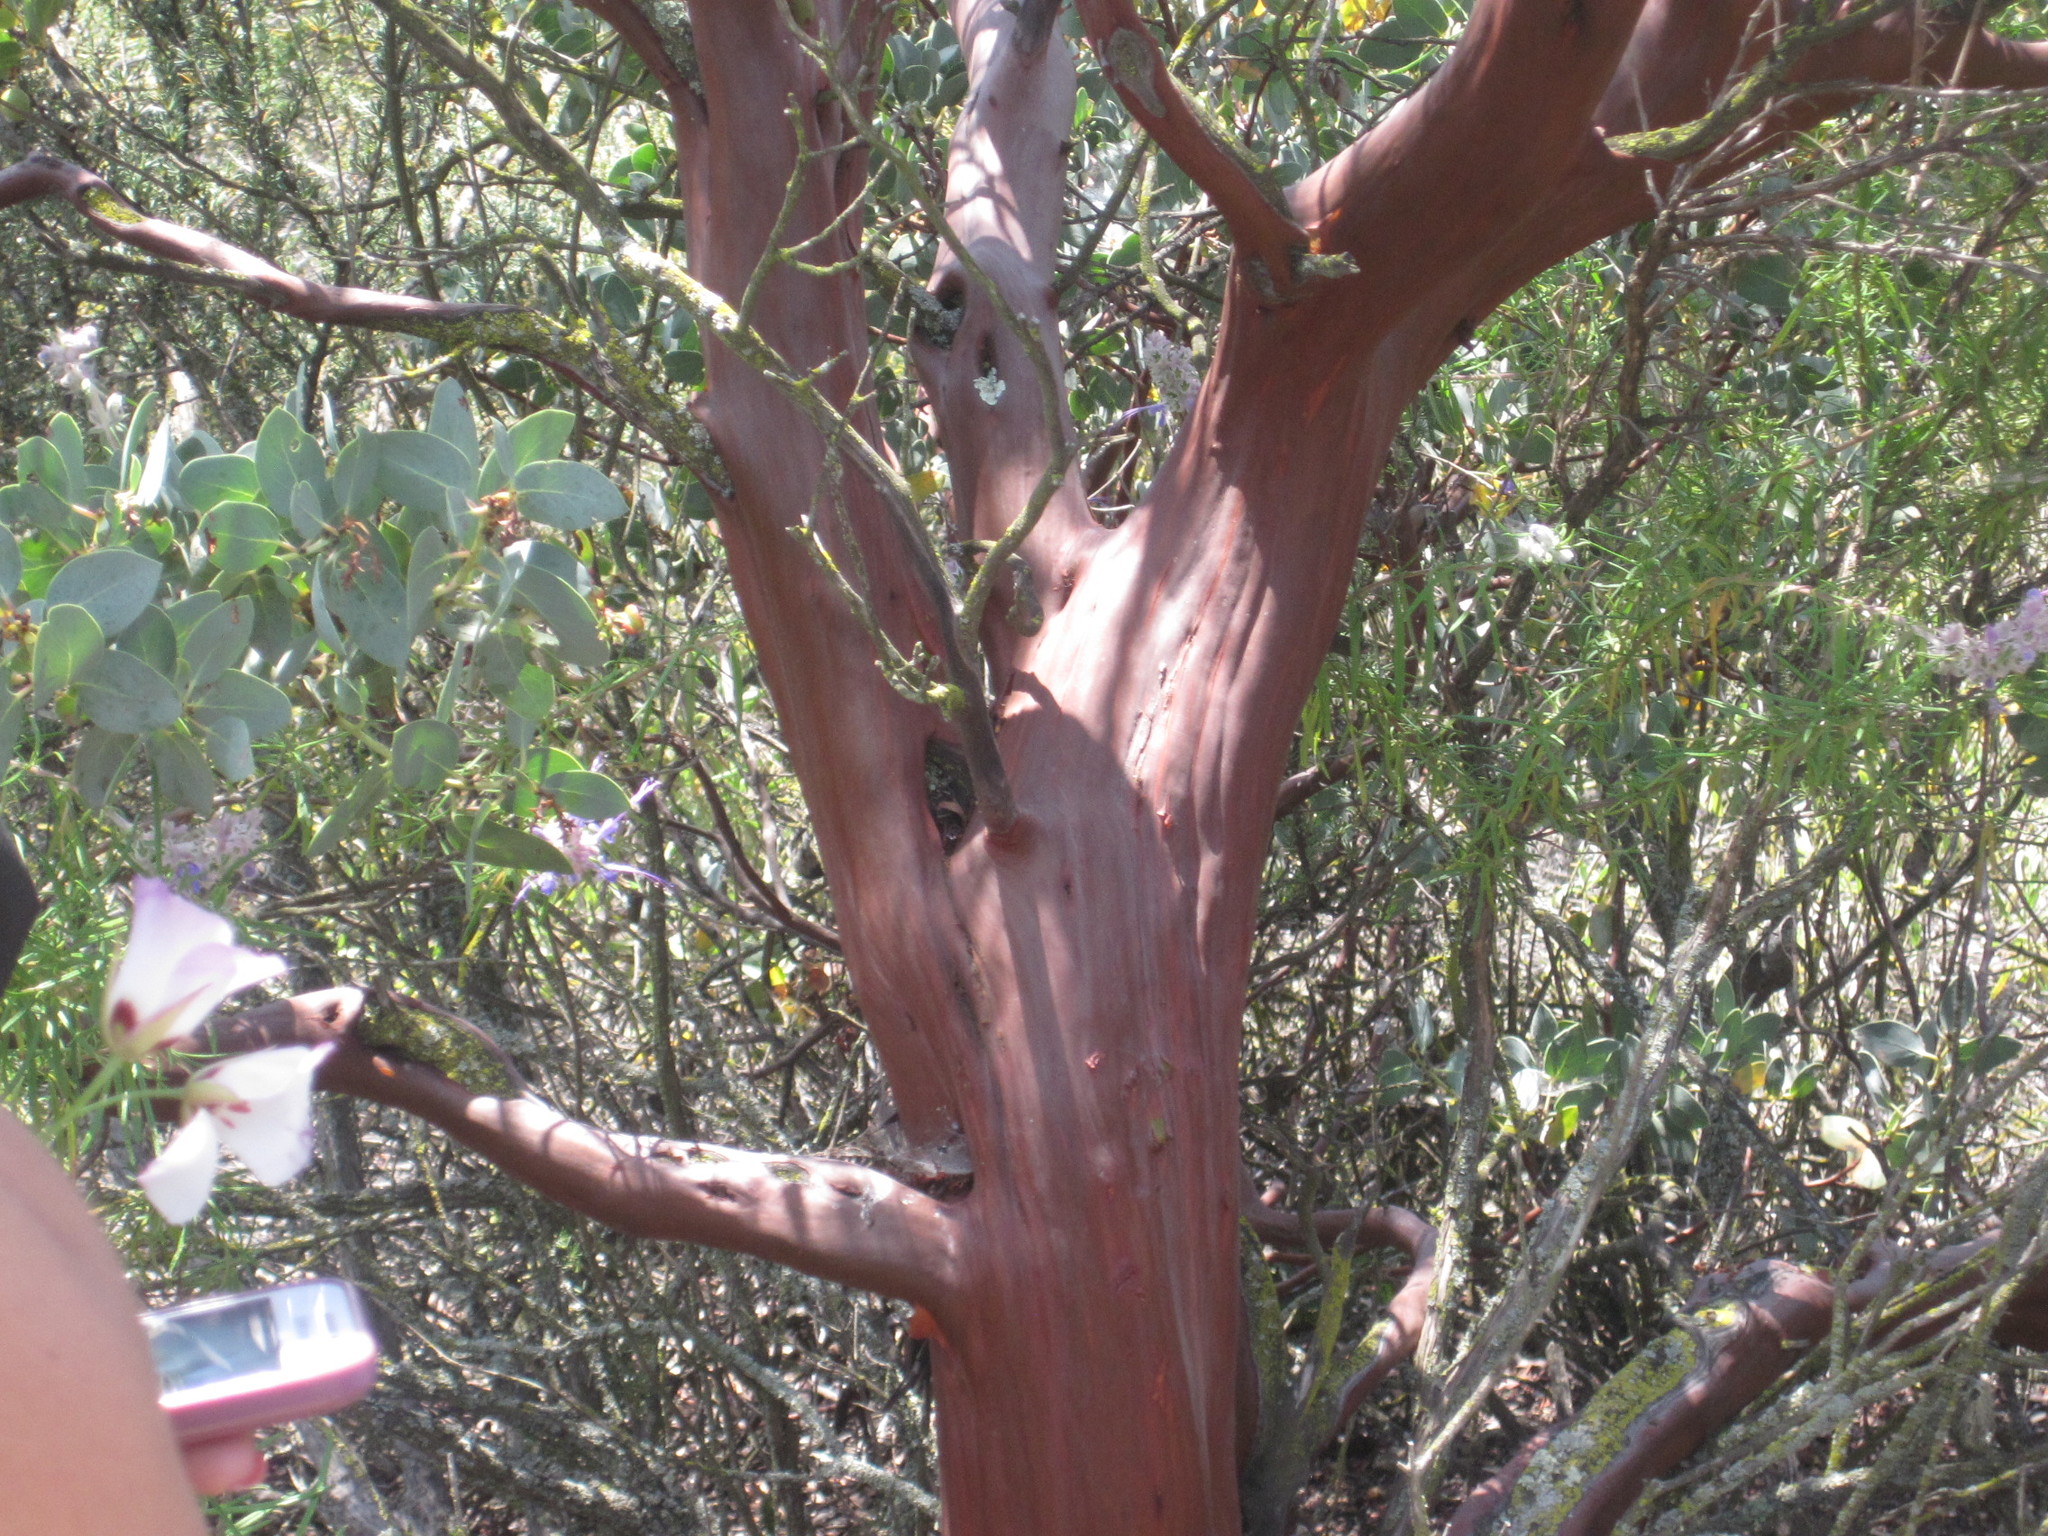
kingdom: Plantae
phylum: Tracheophyta
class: Magnoliopsida
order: Ericales
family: Ericaceae
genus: Arctostaphylos
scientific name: Arctostaphylos glauca
